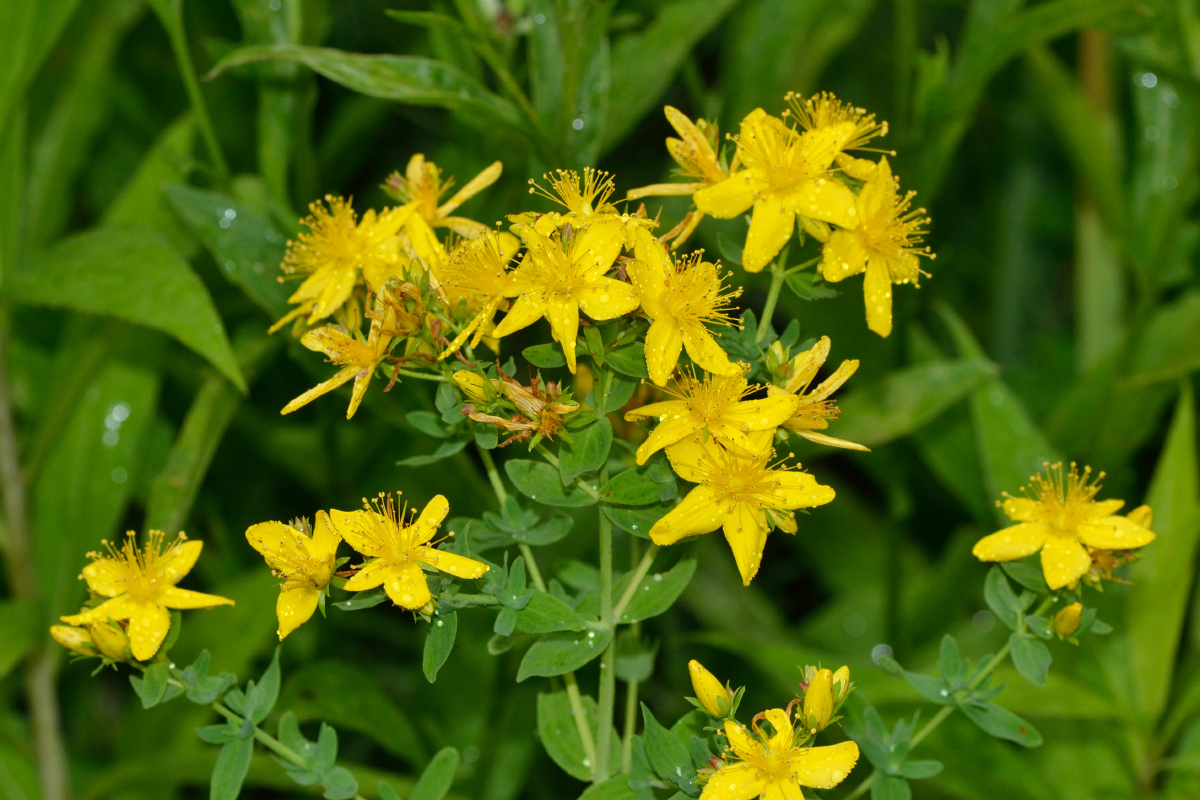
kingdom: Plantae
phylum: Tracheophyta
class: Magnoliopsida
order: Malpighiales
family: Hypericaceae
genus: Hypericum
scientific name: Hypericum perforatum
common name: Common st. johnswort
